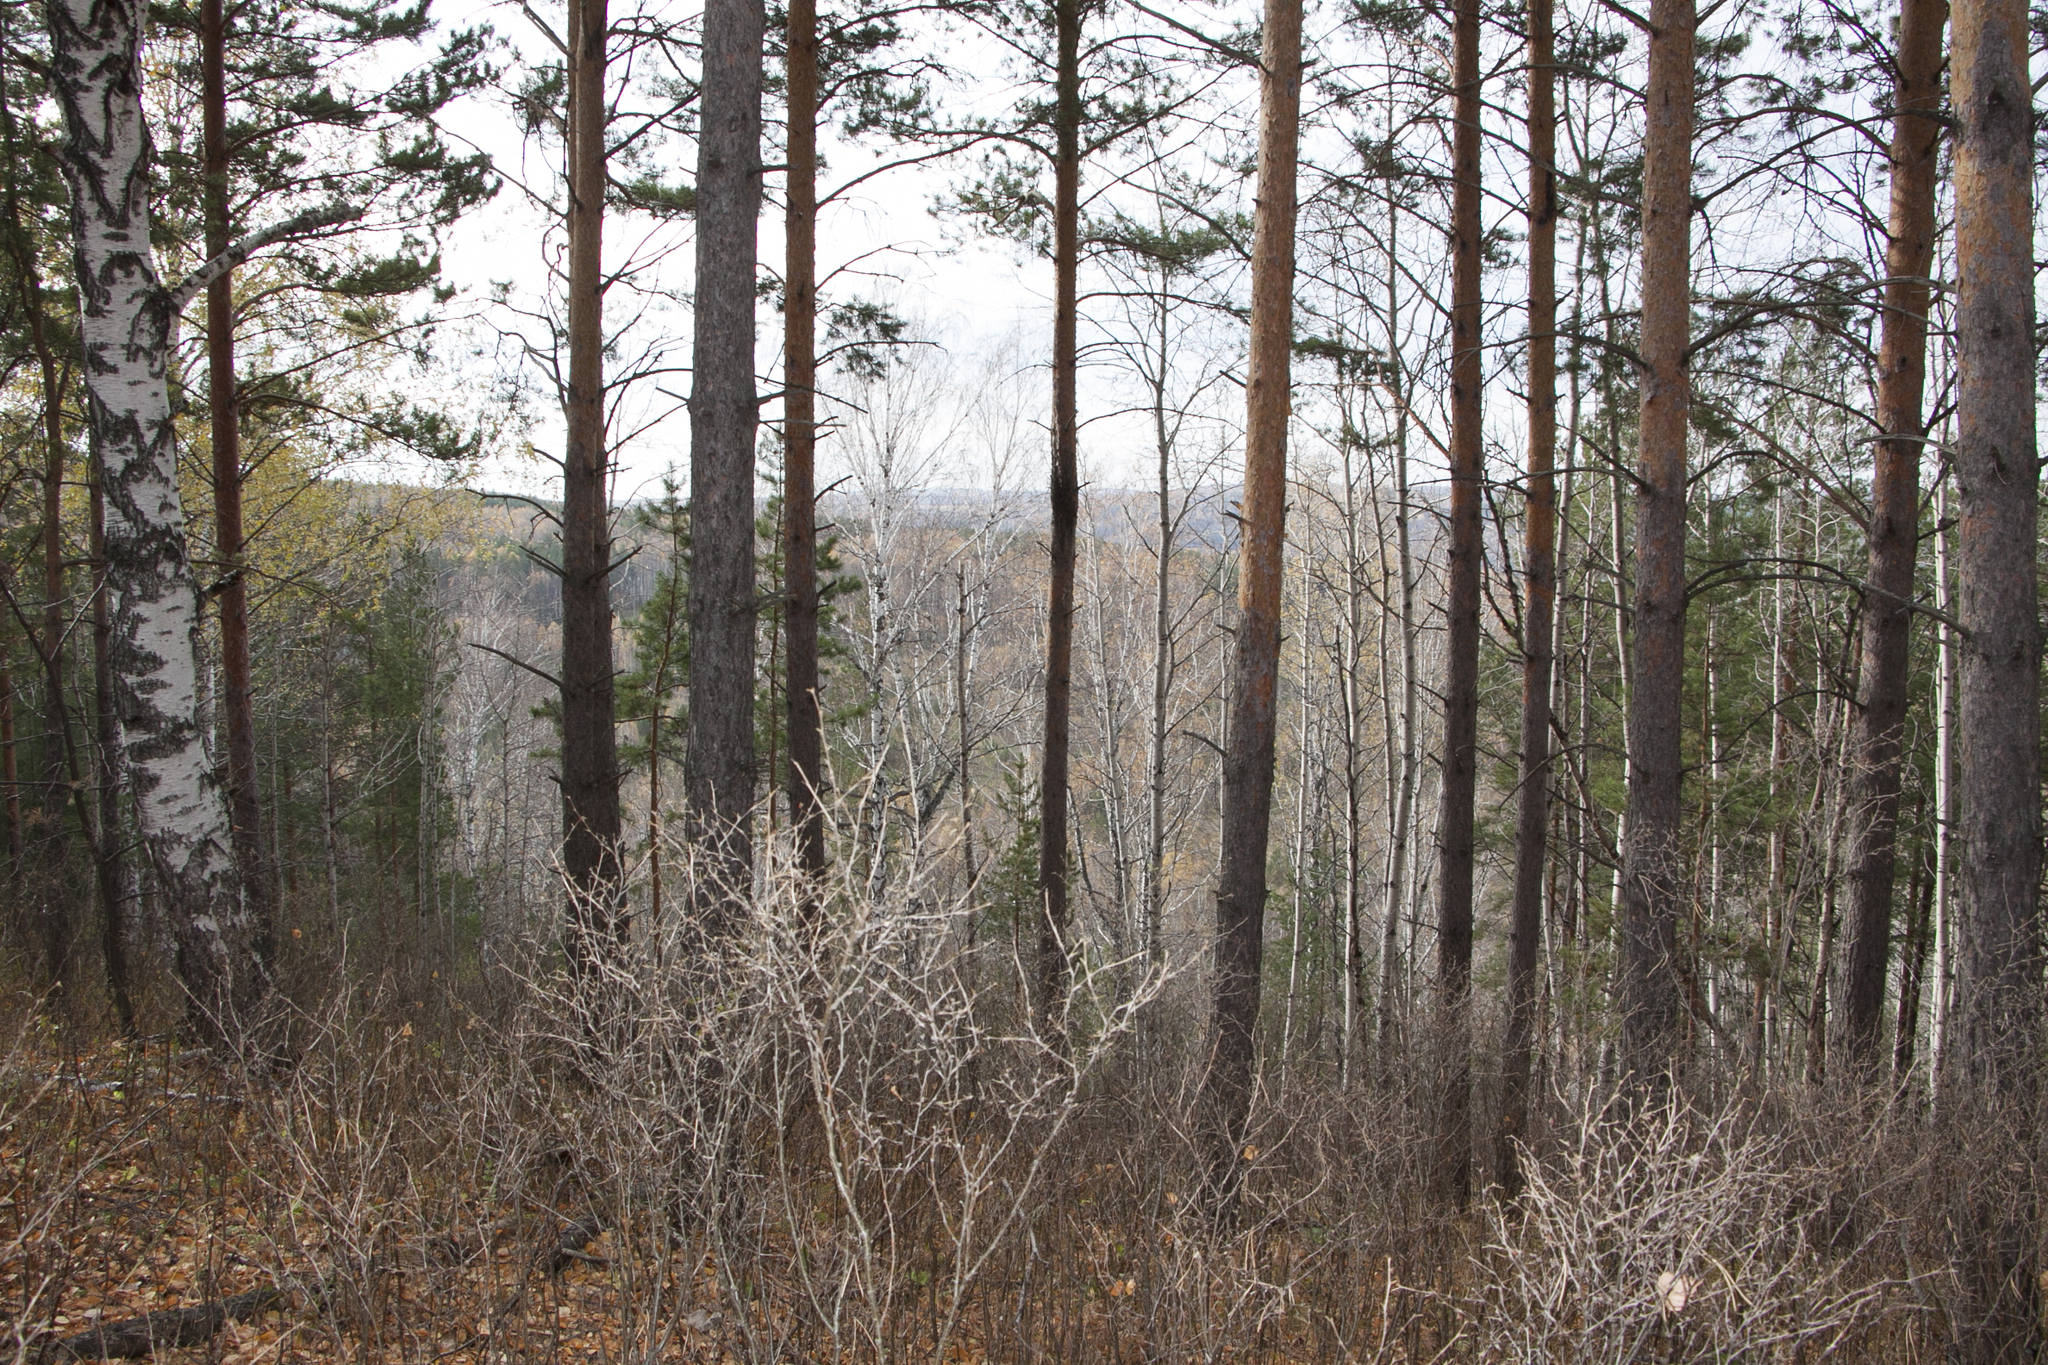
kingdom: Plantae
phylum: Tracheophyta
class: Pinopsida
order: Pinales
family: Pinaceae
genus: Pinus
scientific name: Pinus sylvestris
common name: Scots pine
